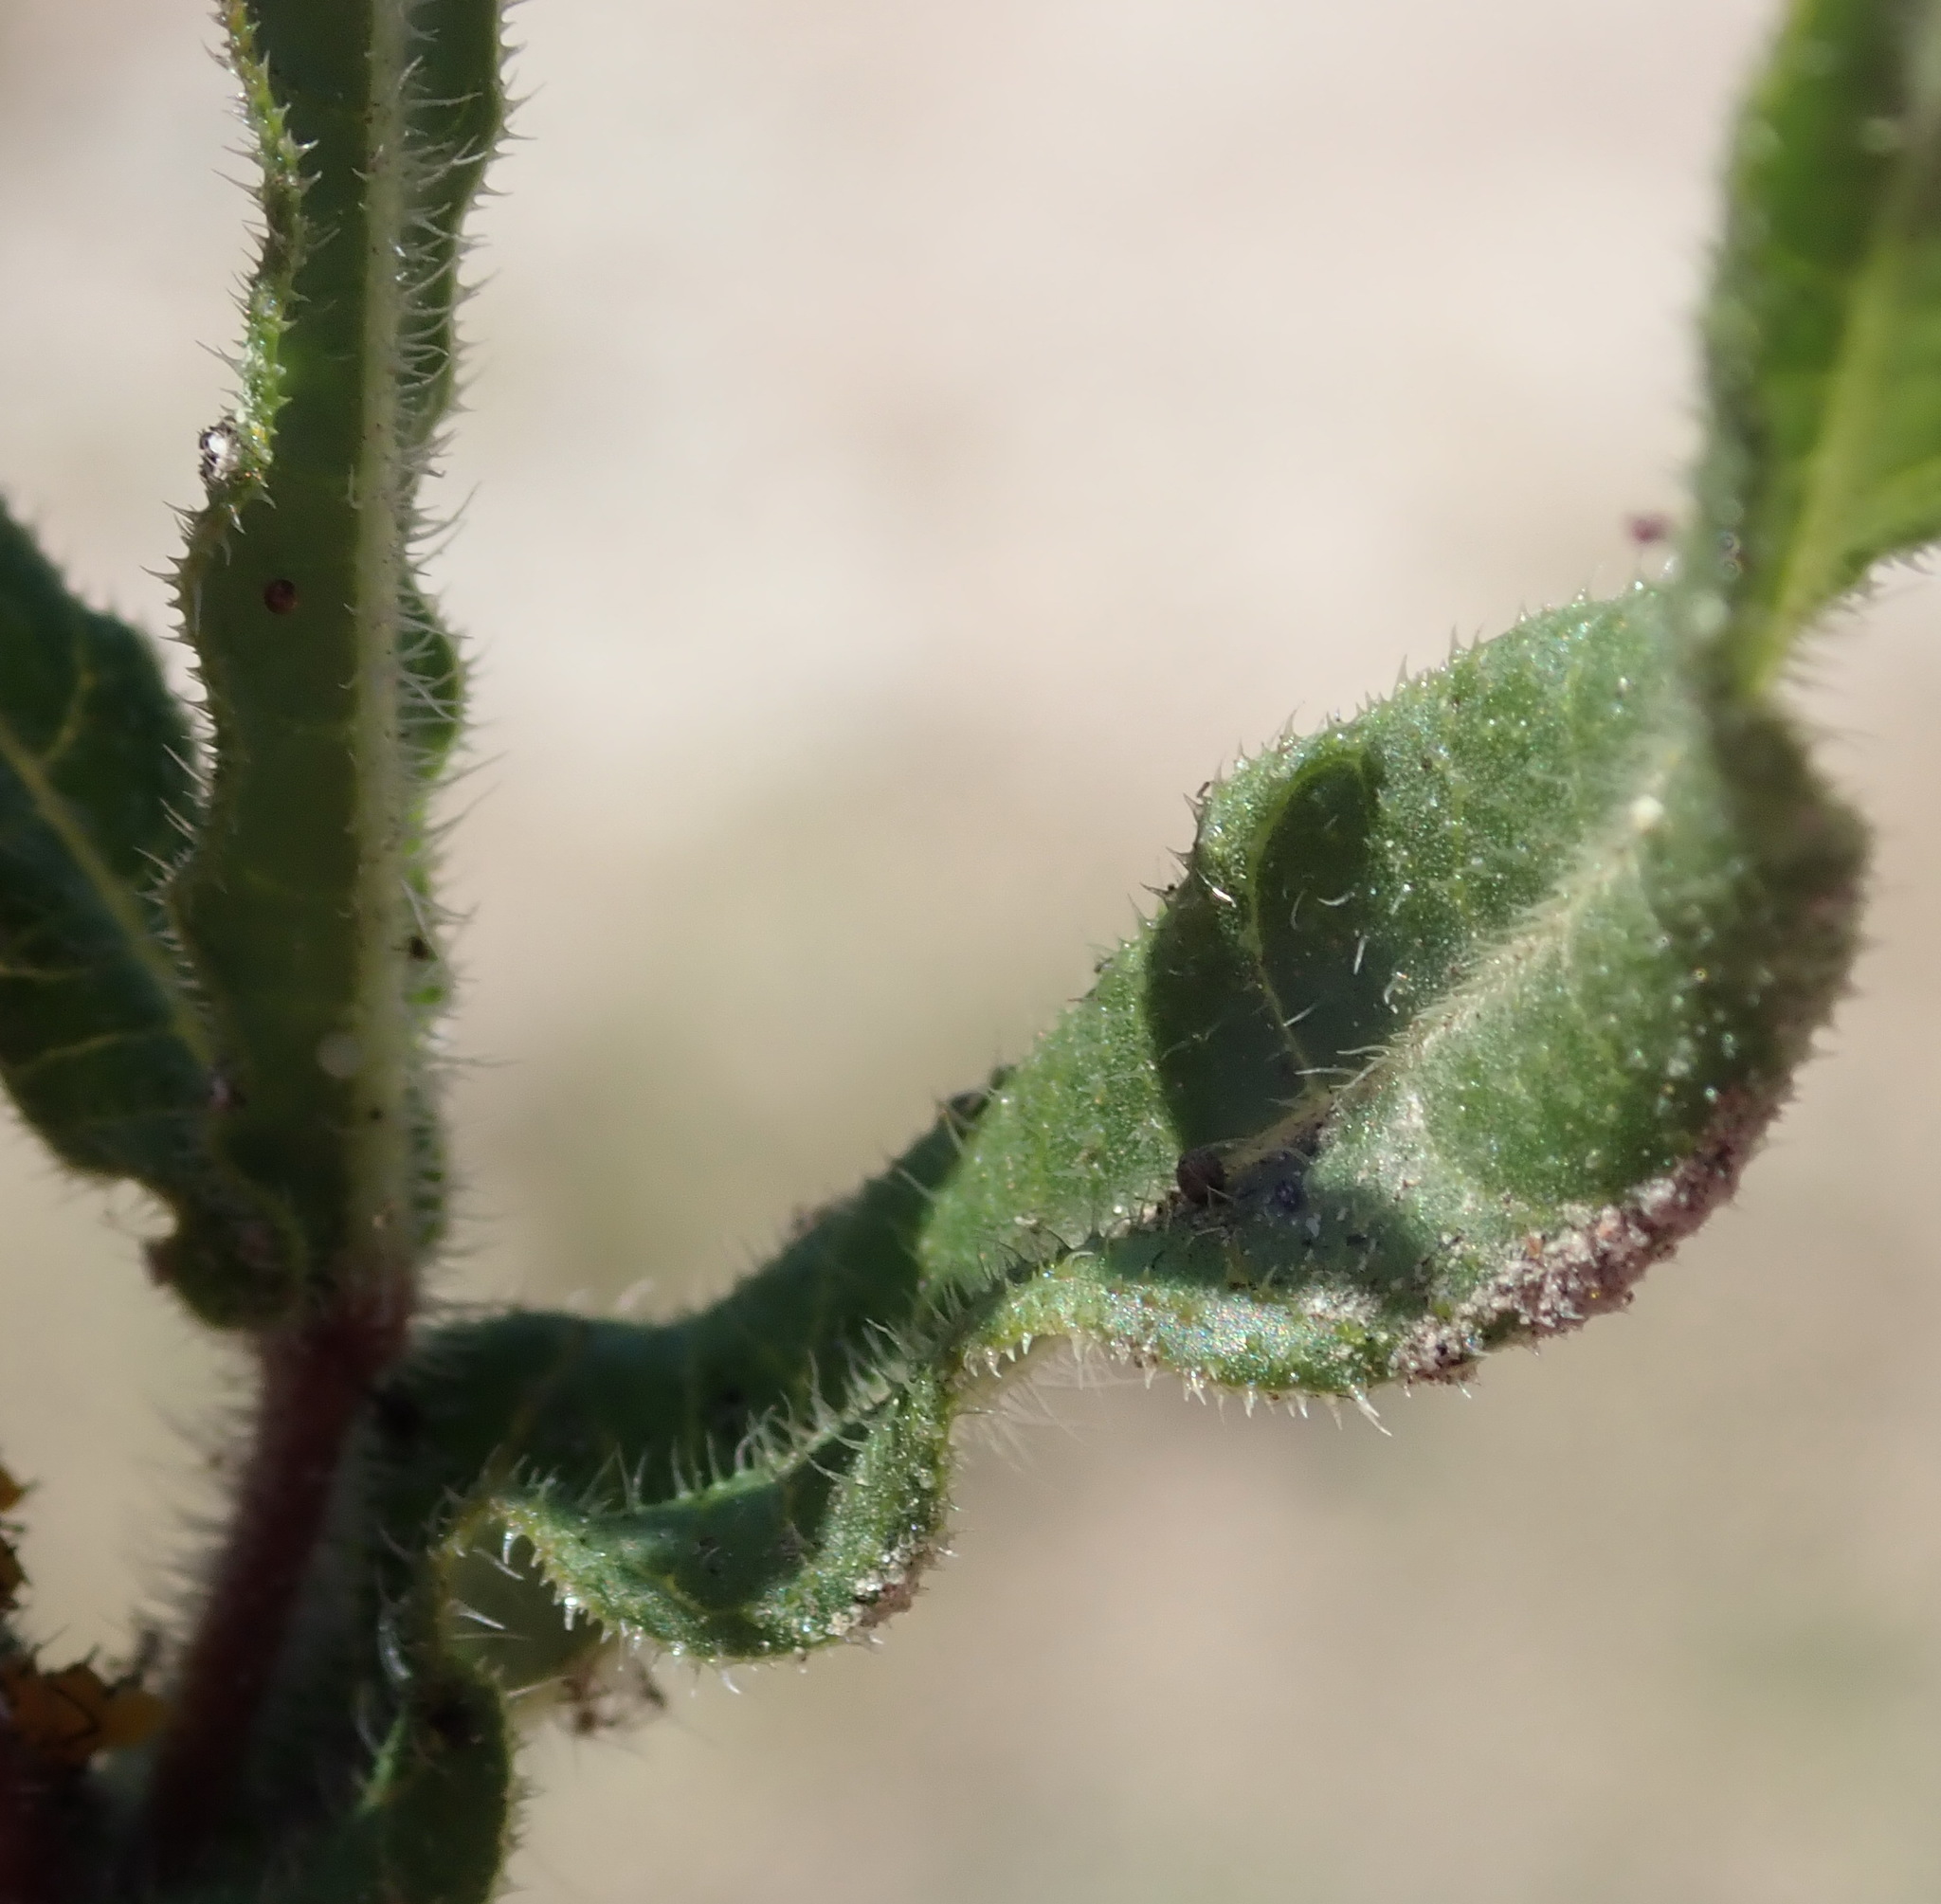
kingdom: Plantae
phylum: Tracheophyta
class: Magnoliopsida
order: Gentianales
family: Apocynaceae
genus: Asclepias
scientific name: Asclepias crispa
